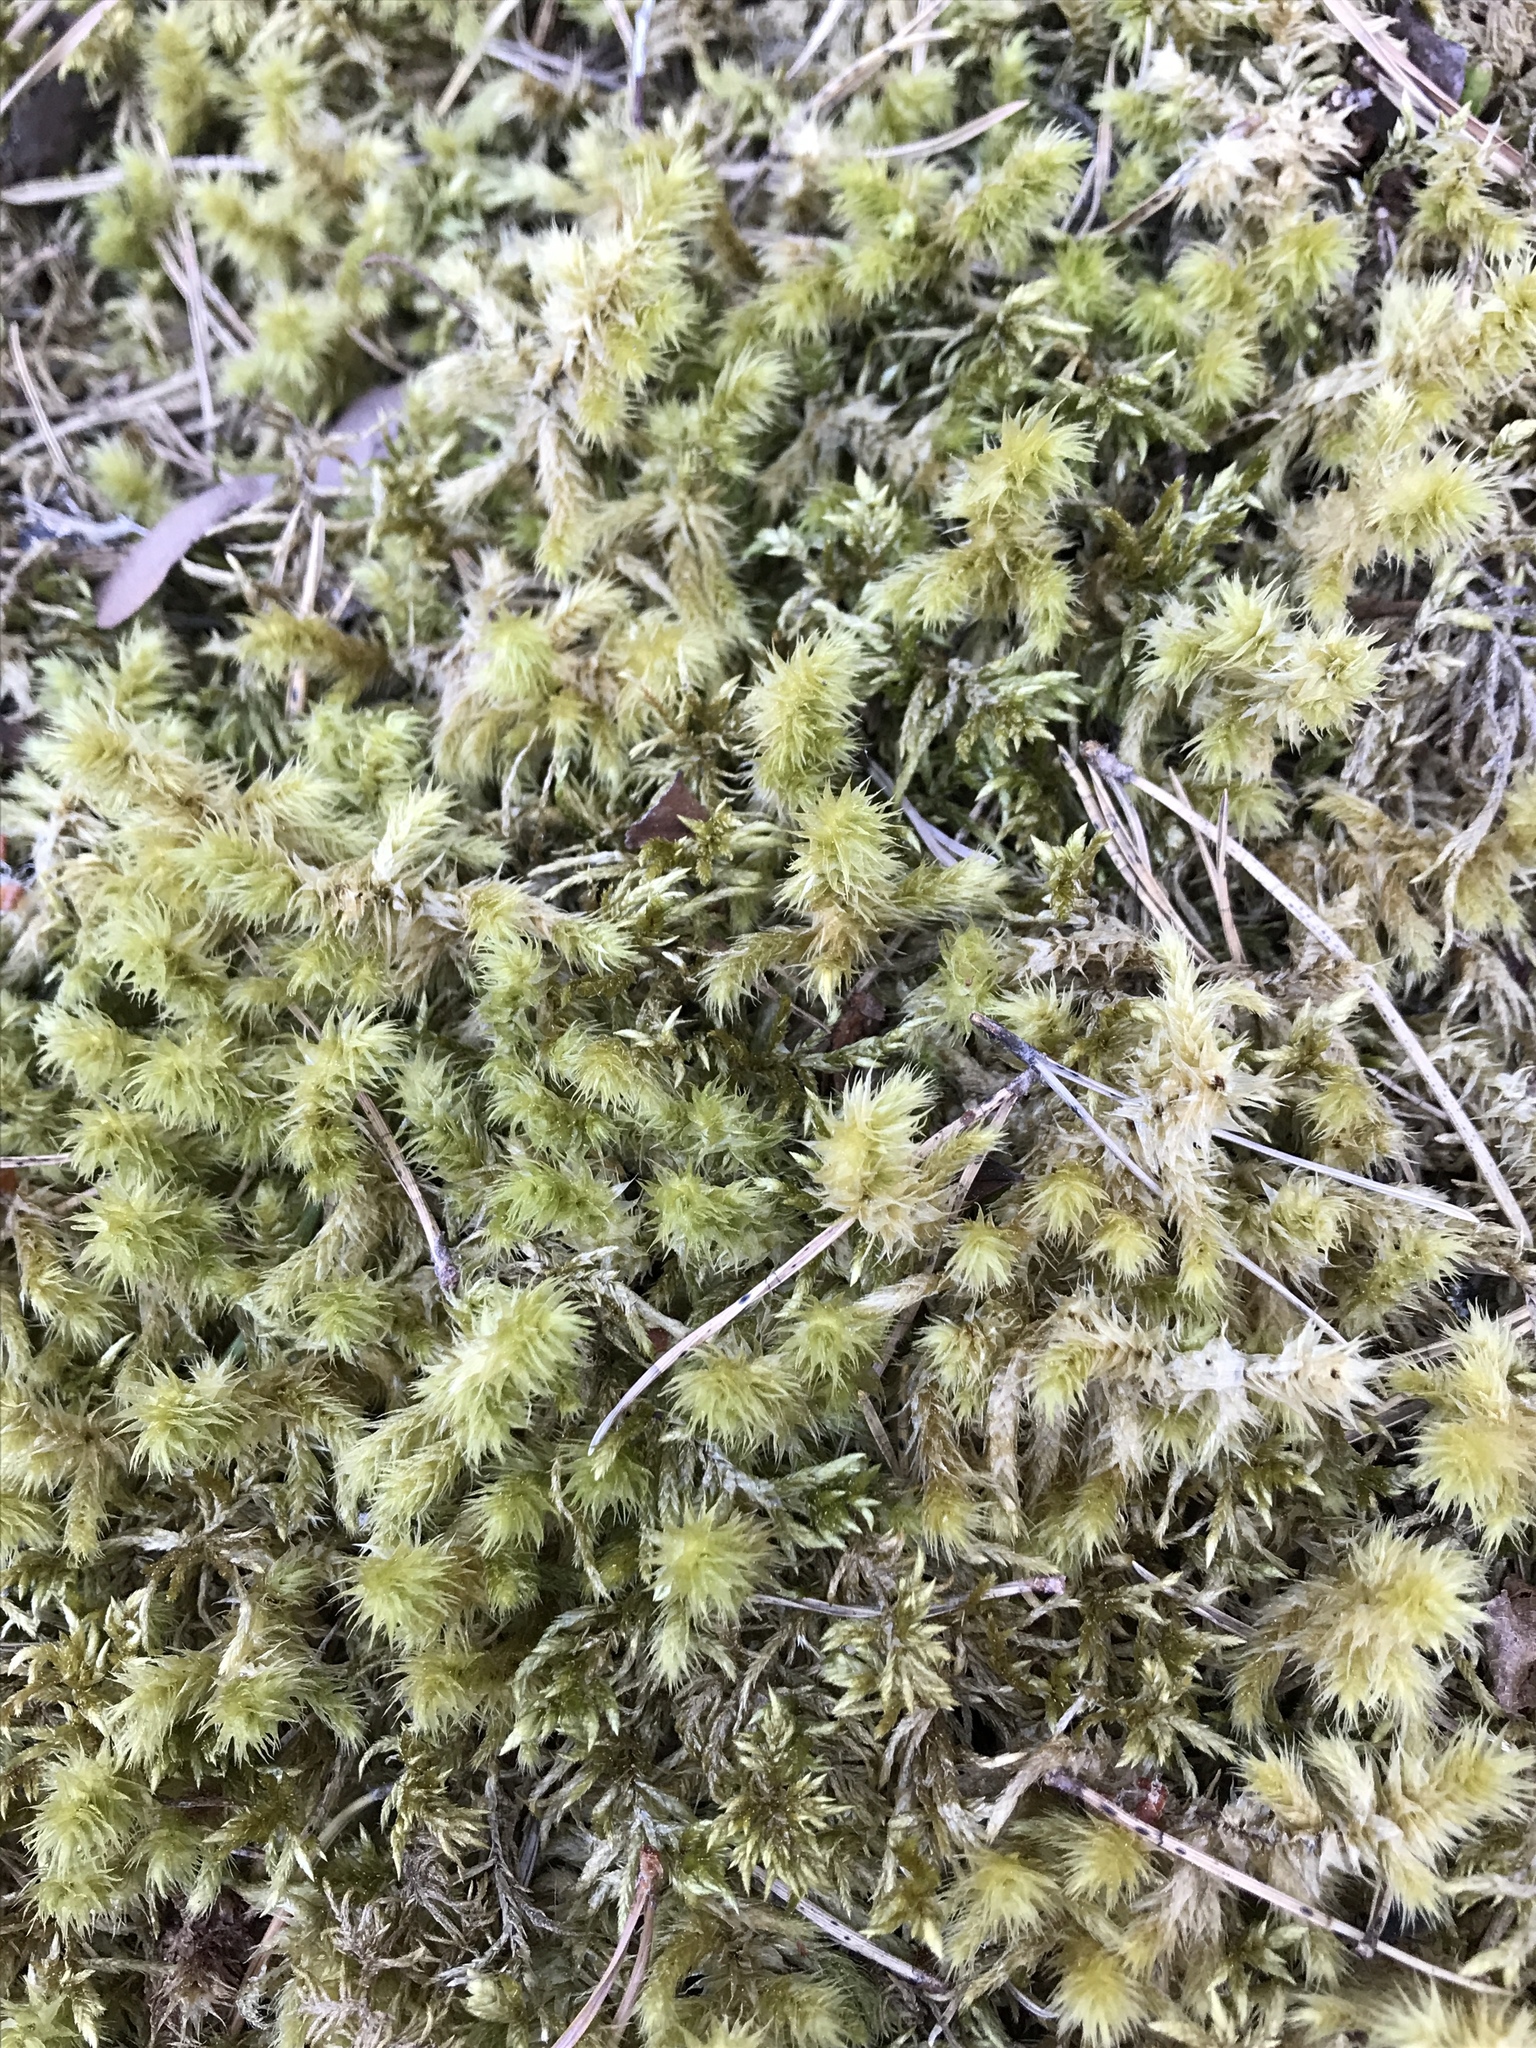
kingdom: Plantae
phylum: Bryophyta
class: Bryopsida
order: Hypnales
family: Hylocomiaceae
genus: Hylocomiadelphus
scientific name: Hylocomiadelphus triquetrus
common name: Rough goose neck moss
